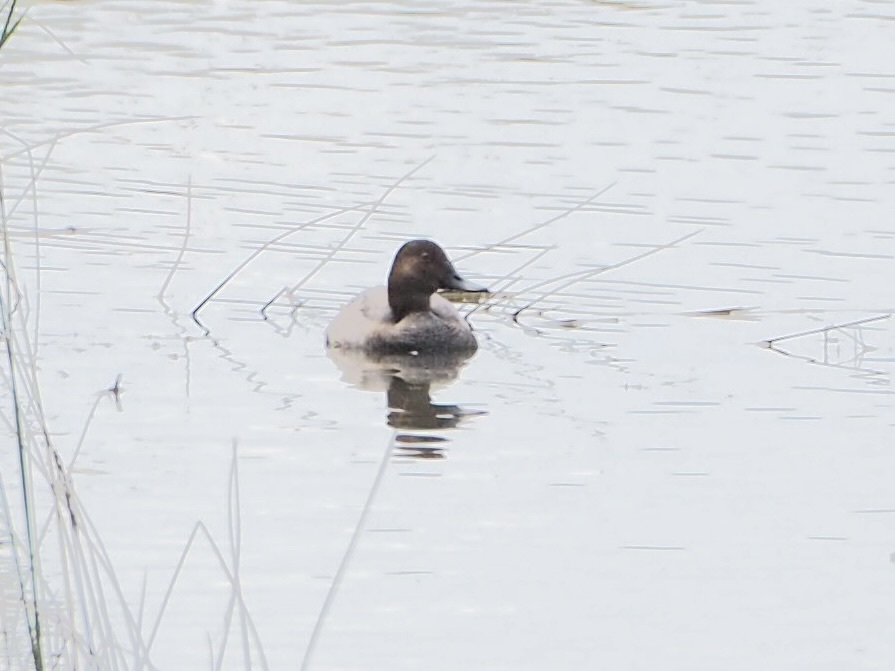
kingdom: Animalia
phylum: Chordata
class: Aves
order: Anseriformes
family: Anatidae
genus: Aythya
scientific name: Aythya ferina
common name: Common pochard
